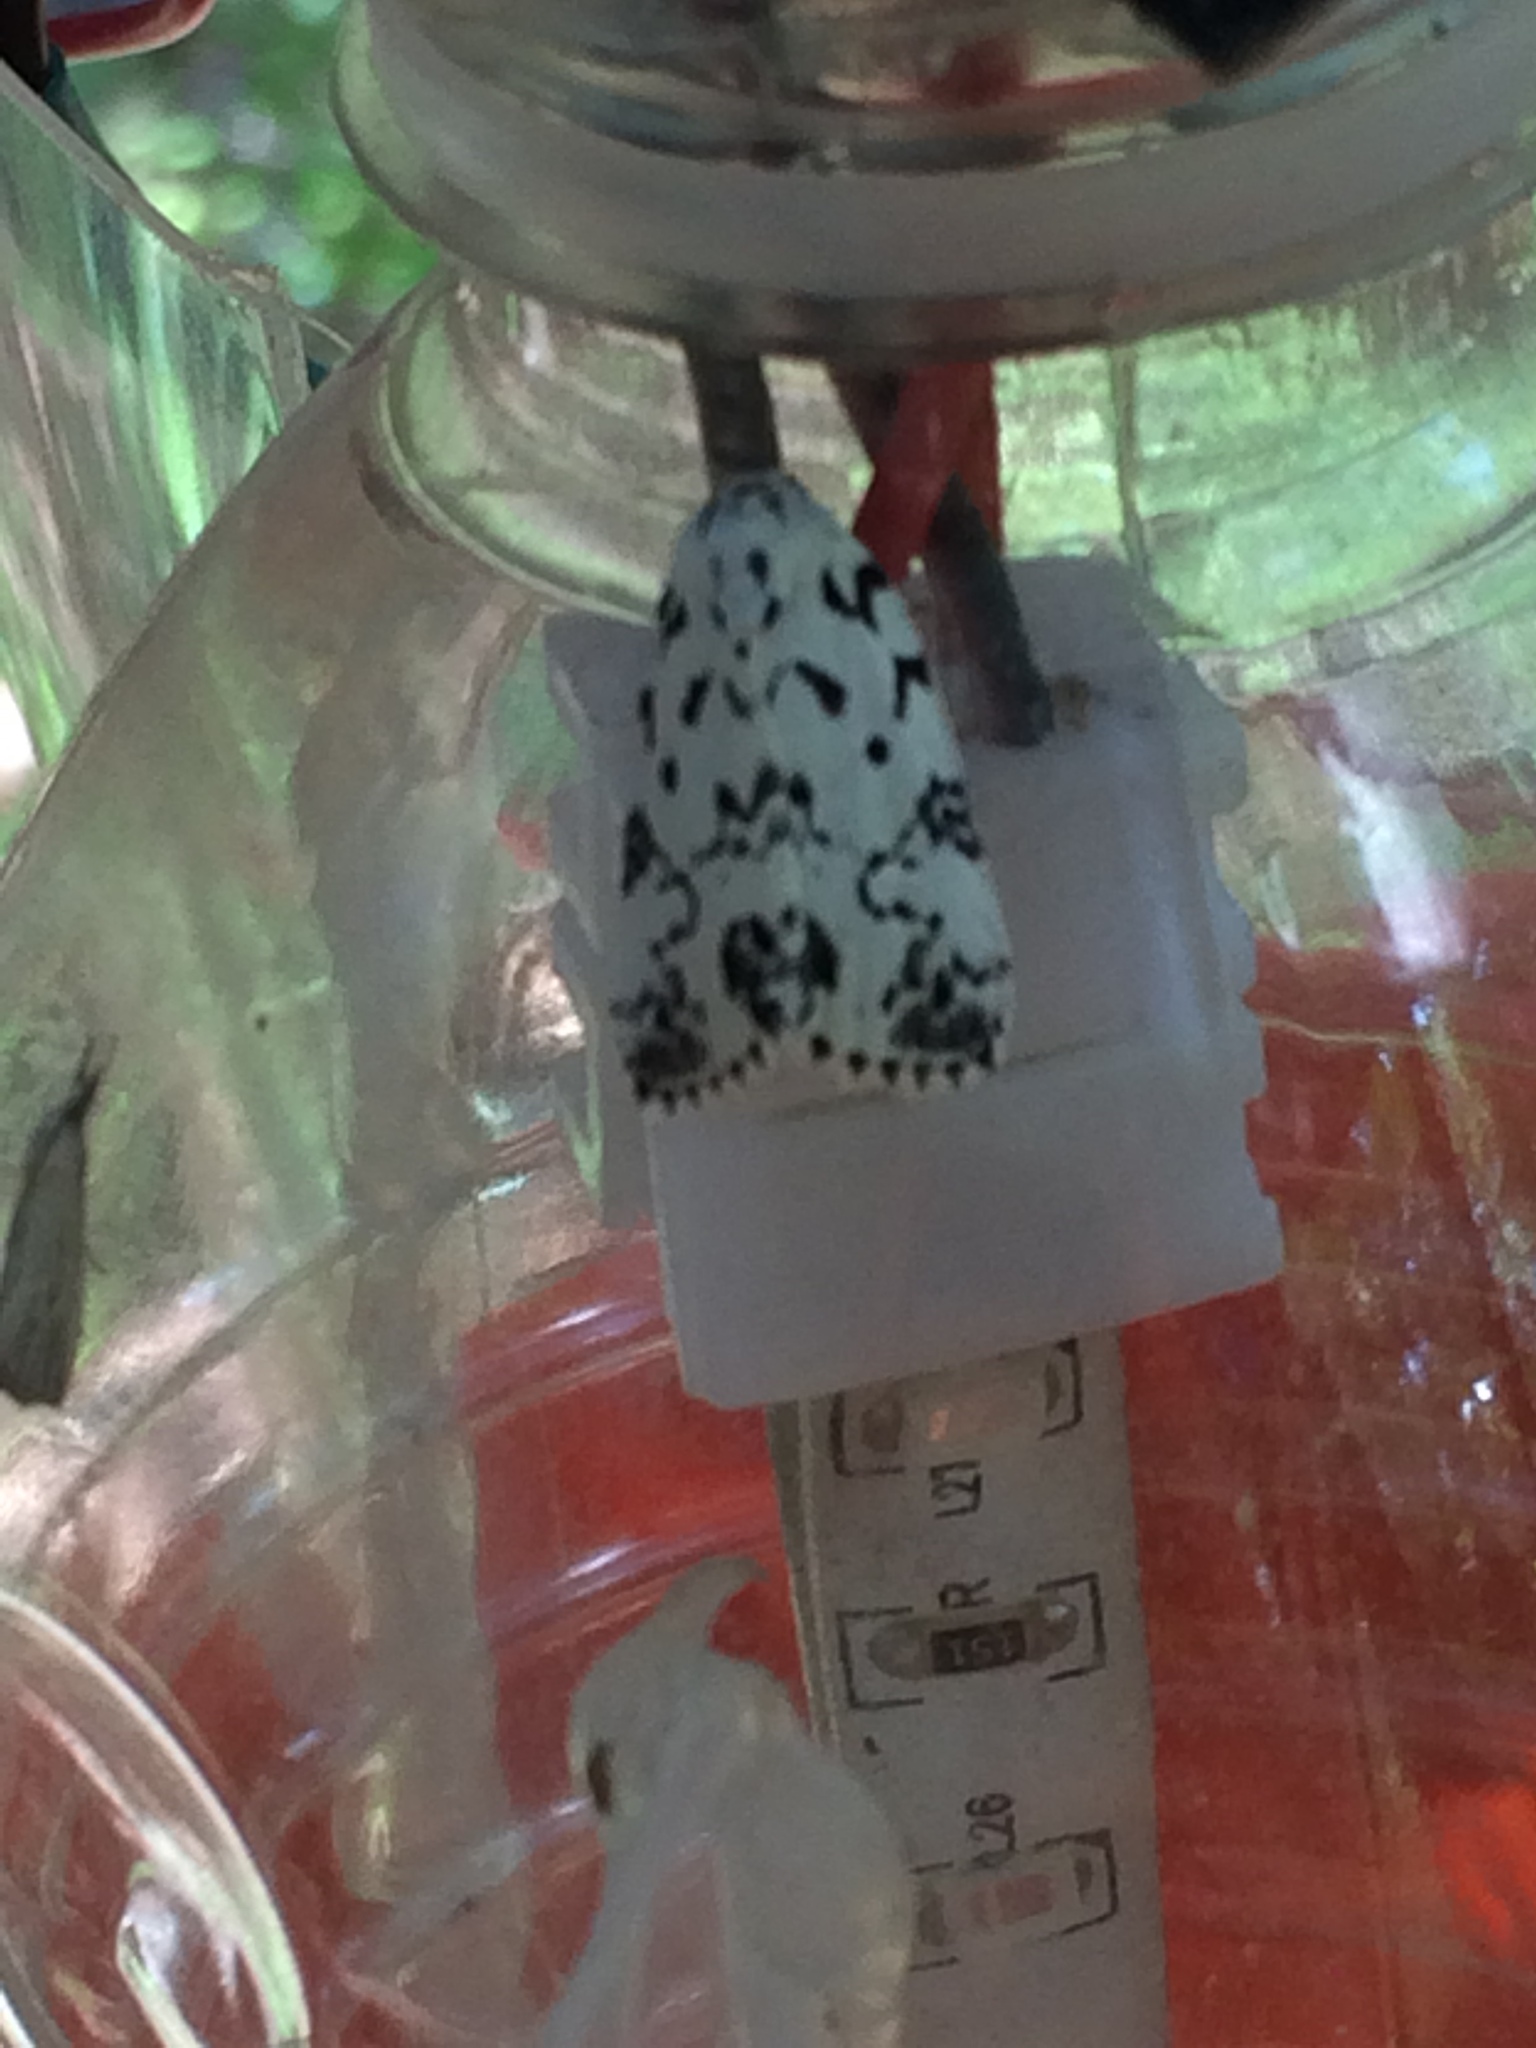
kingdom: Animalia
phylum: Arthropoda
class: Insecta
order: Lepidoptera
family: Noctuidae
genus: Polygrammate
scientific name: Polygrammate hebraeicum
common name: Hebrew moth
